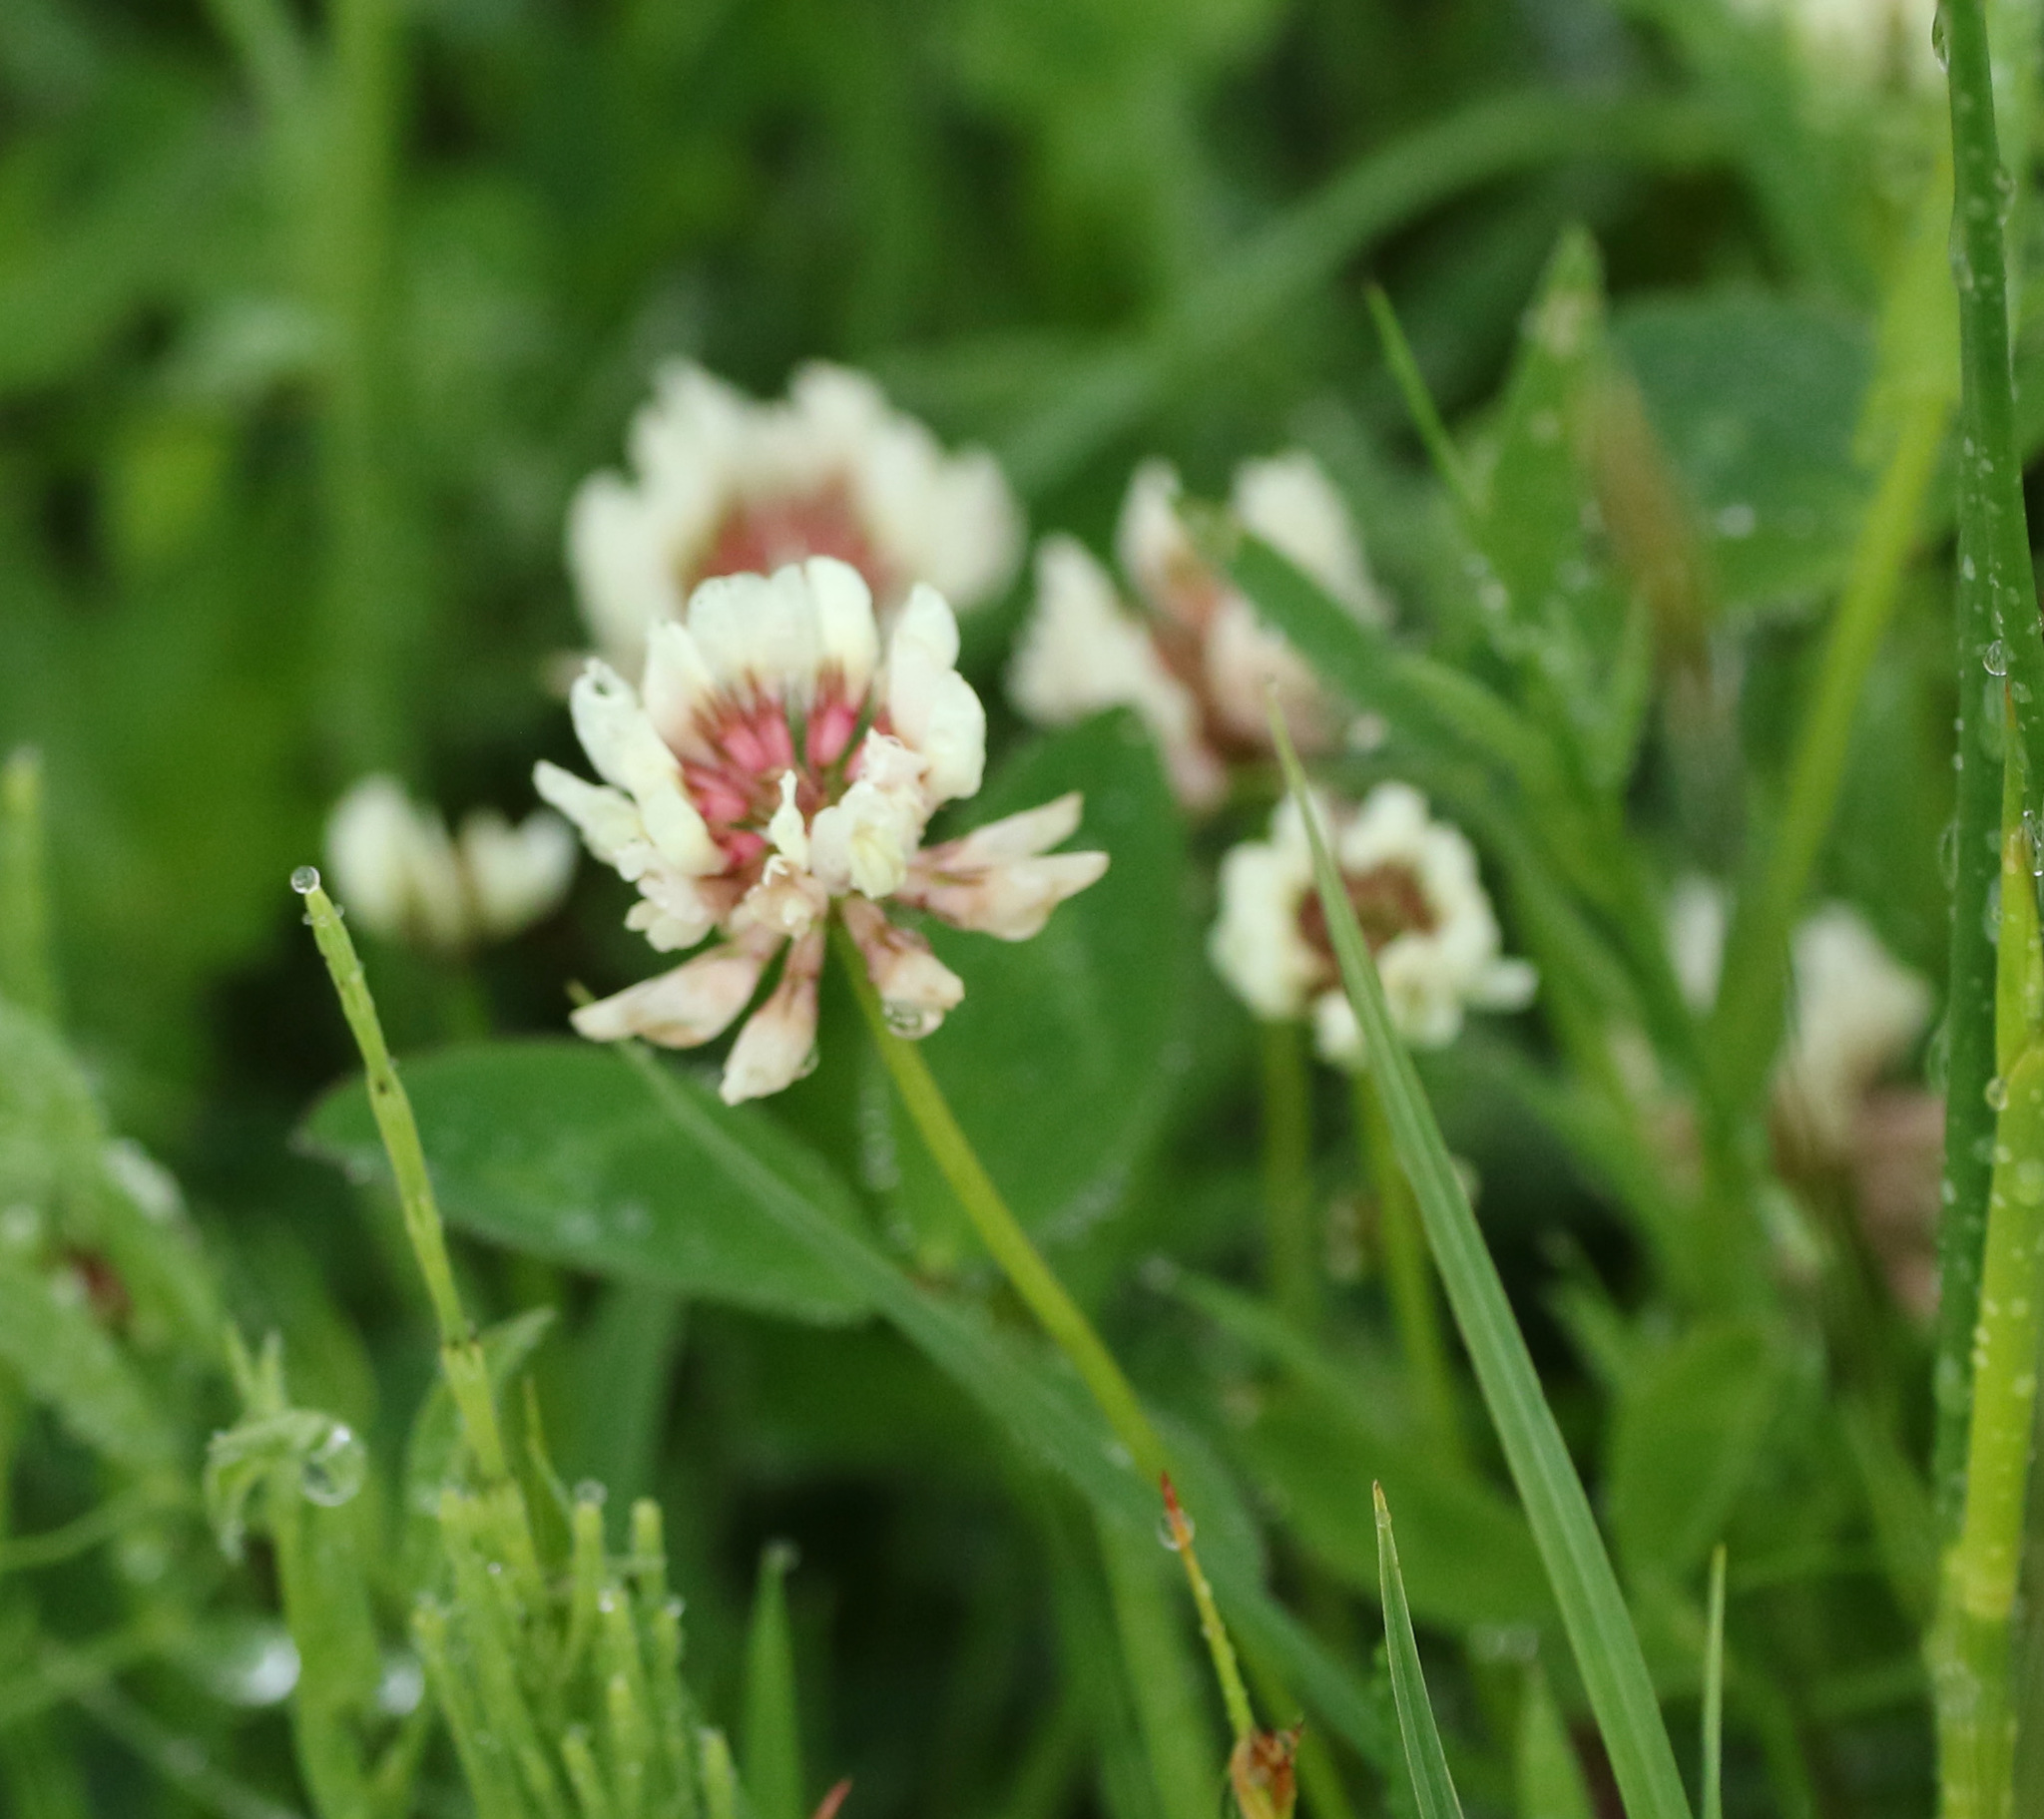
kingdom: Plantae
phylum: Tracheophyta
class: Magnoliopsida
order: Fabales
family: Fabaceae
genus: Trifolium
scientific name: Trifolium repens
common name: White clover
